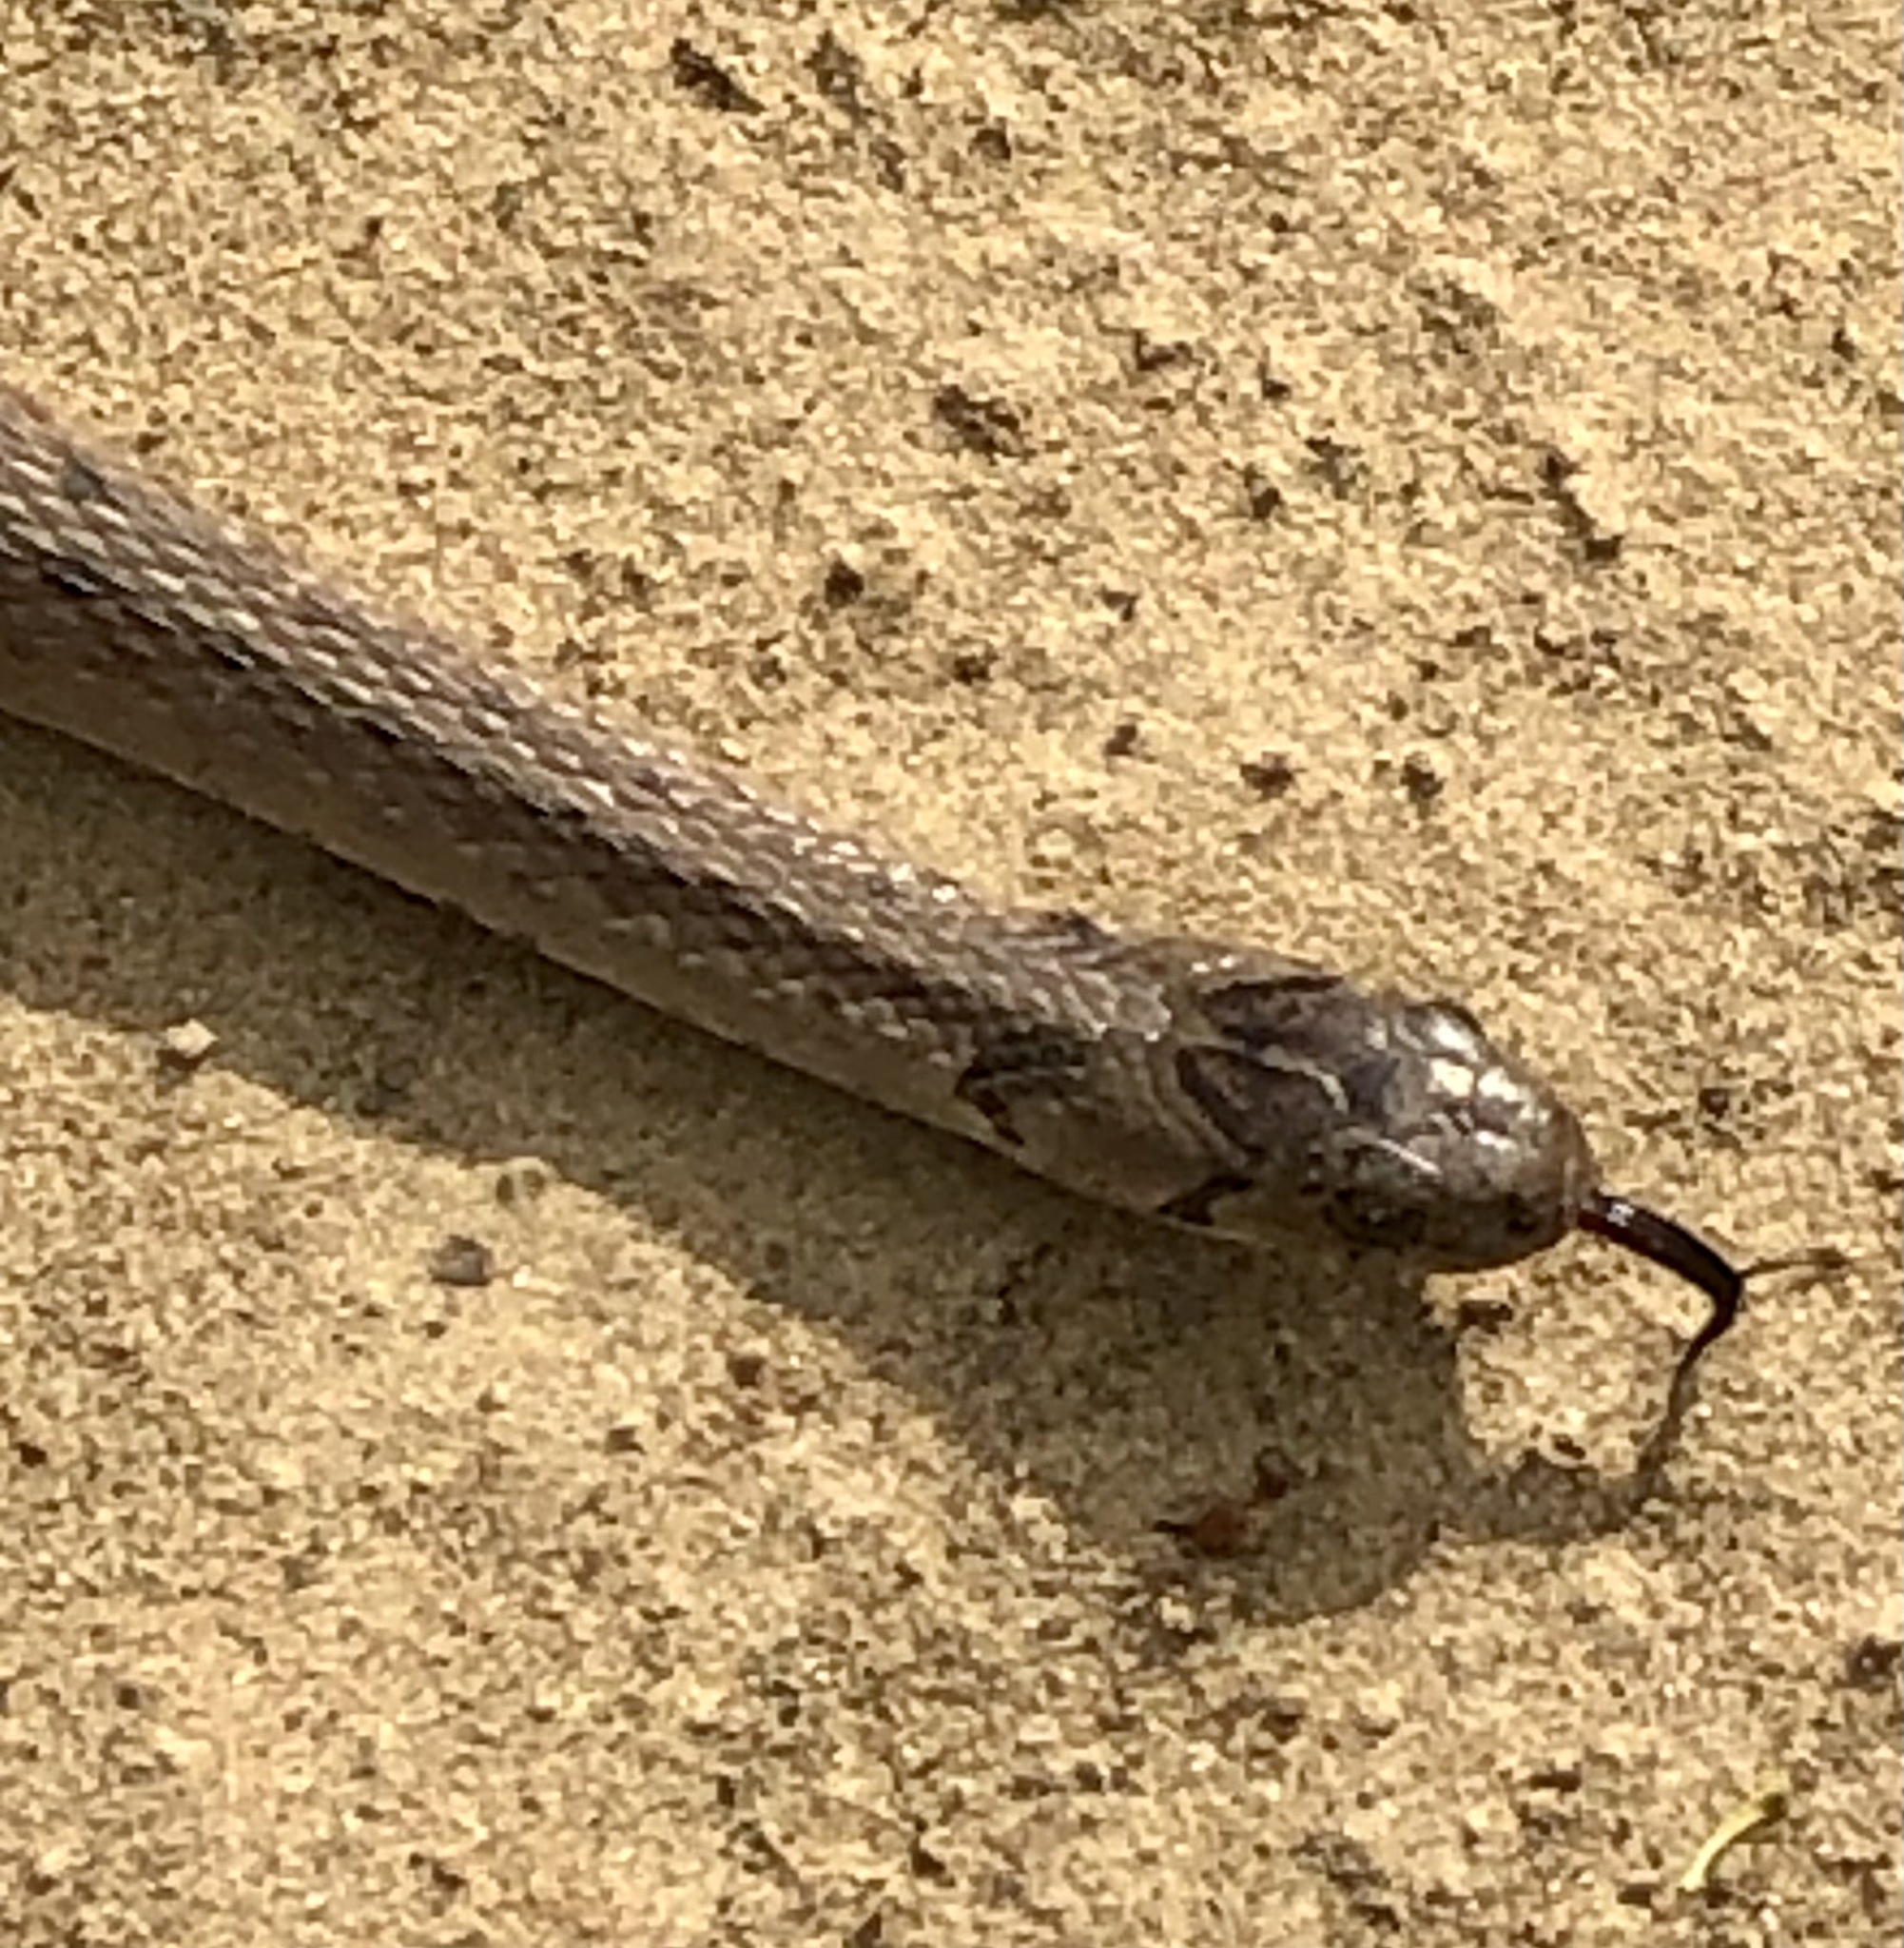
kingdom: Animalia
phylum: Chordata
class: Squamata
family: Colubridae
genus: Storeria
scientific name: Storeria dekayi
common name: (dekay’s) brown snake
